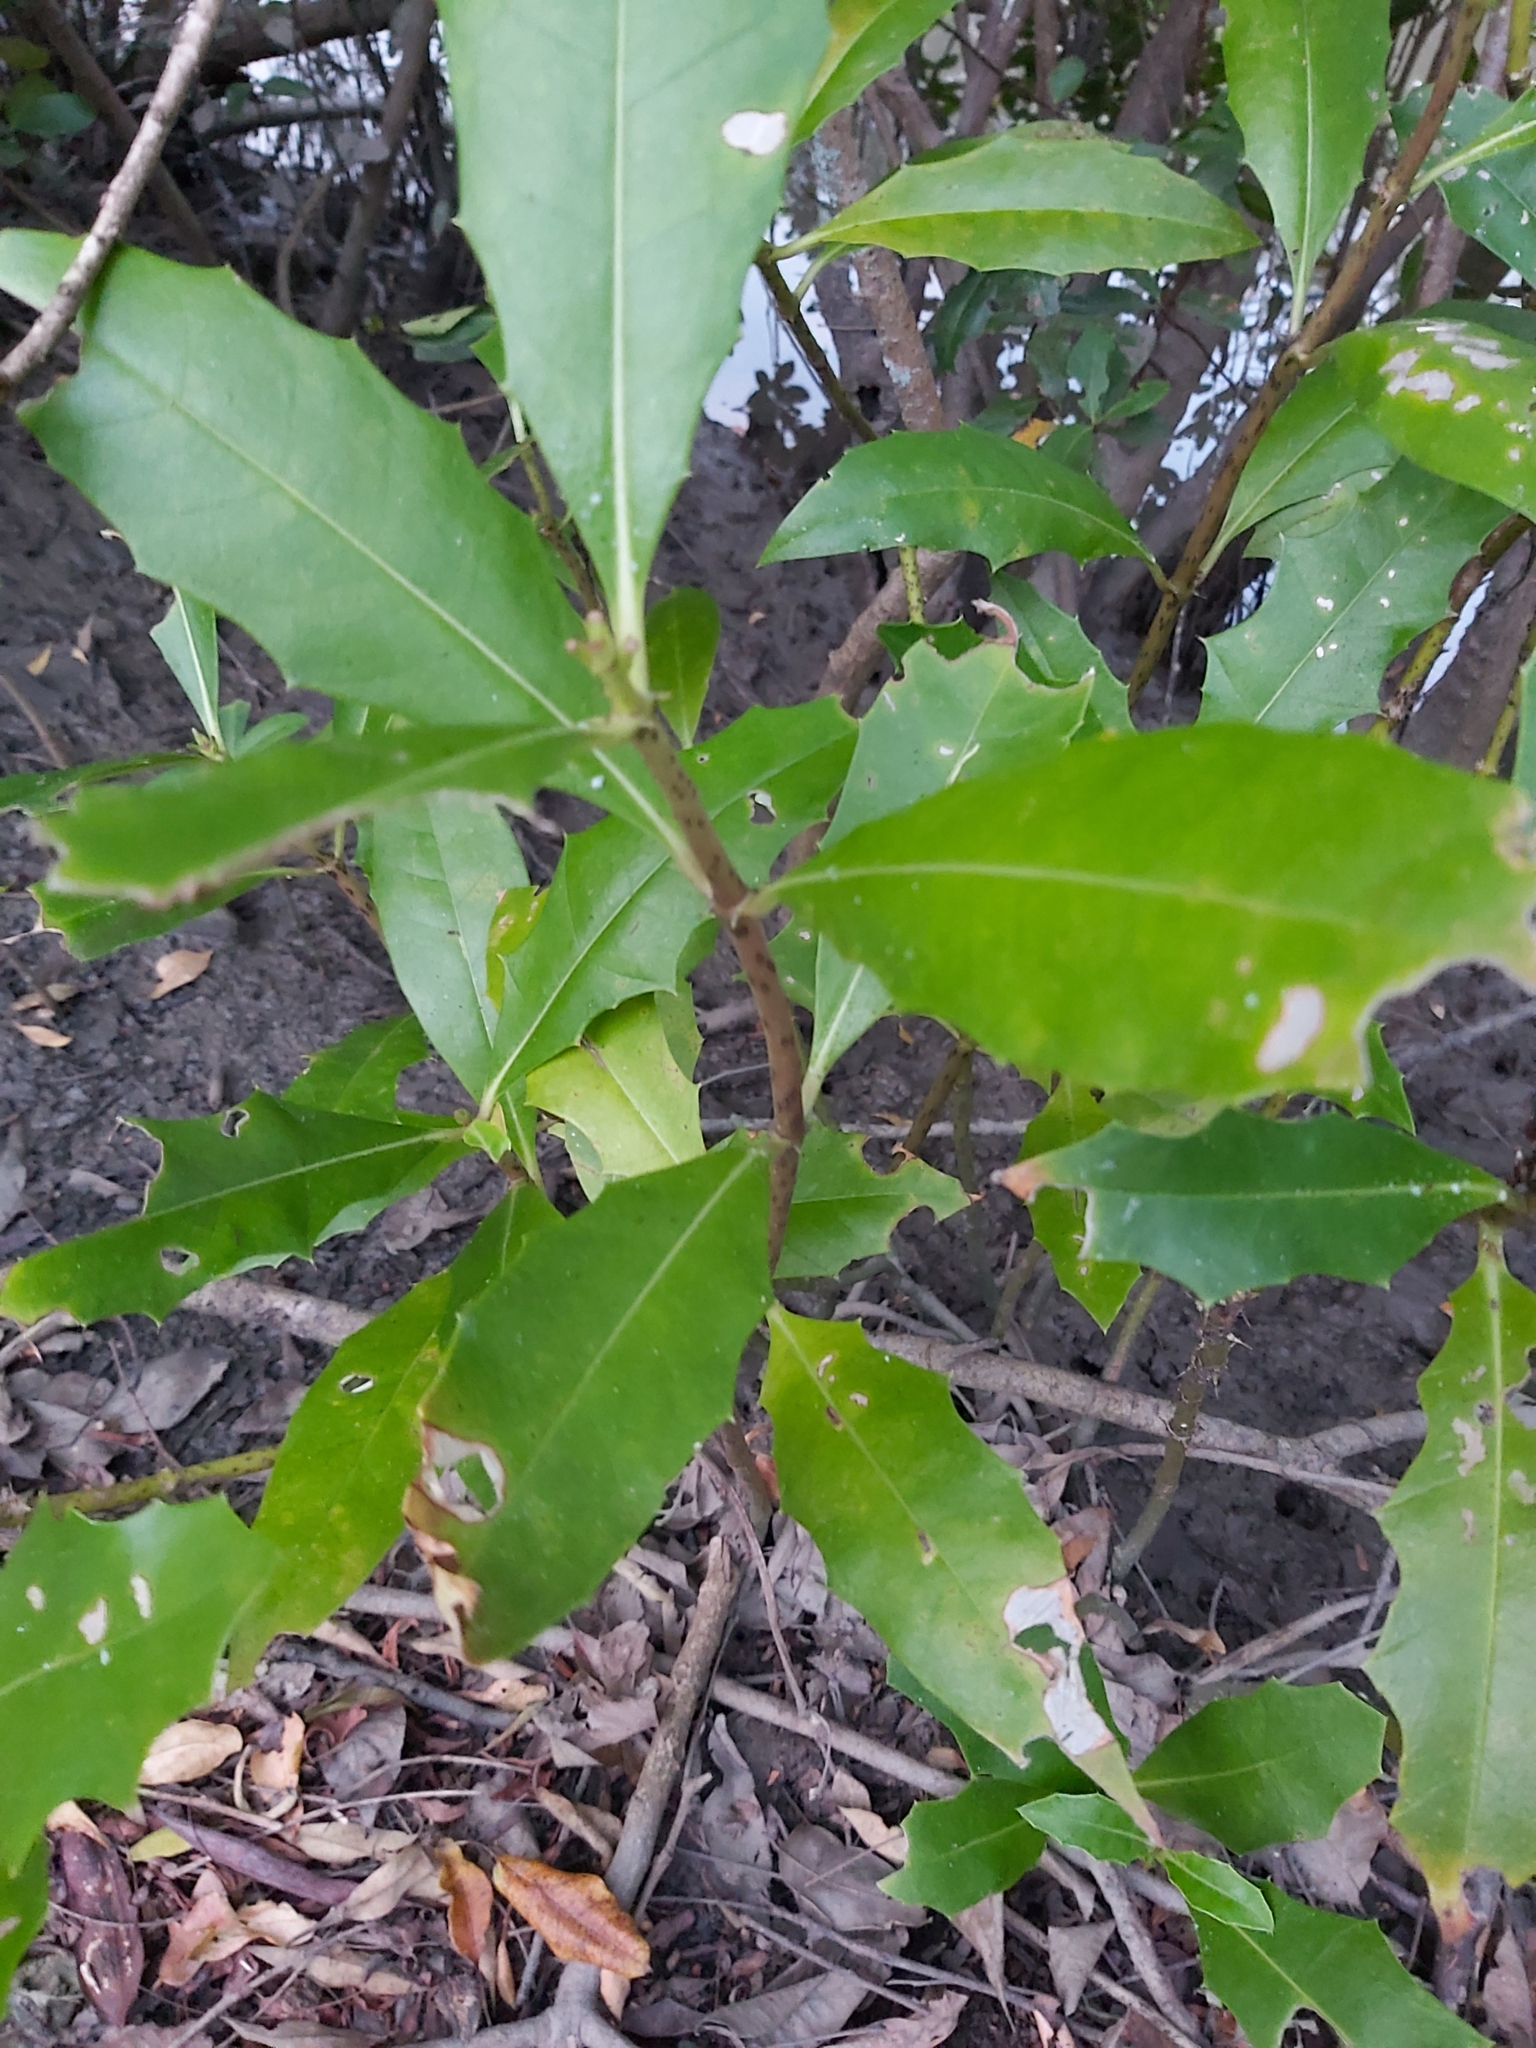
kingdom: Plantae
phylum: Tracheophyta
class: Magnoliopsida
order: Lamiales
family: Acanthaceae
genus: Acanthus
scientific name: Acanthus ilicifolius
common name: Holy mangrove
